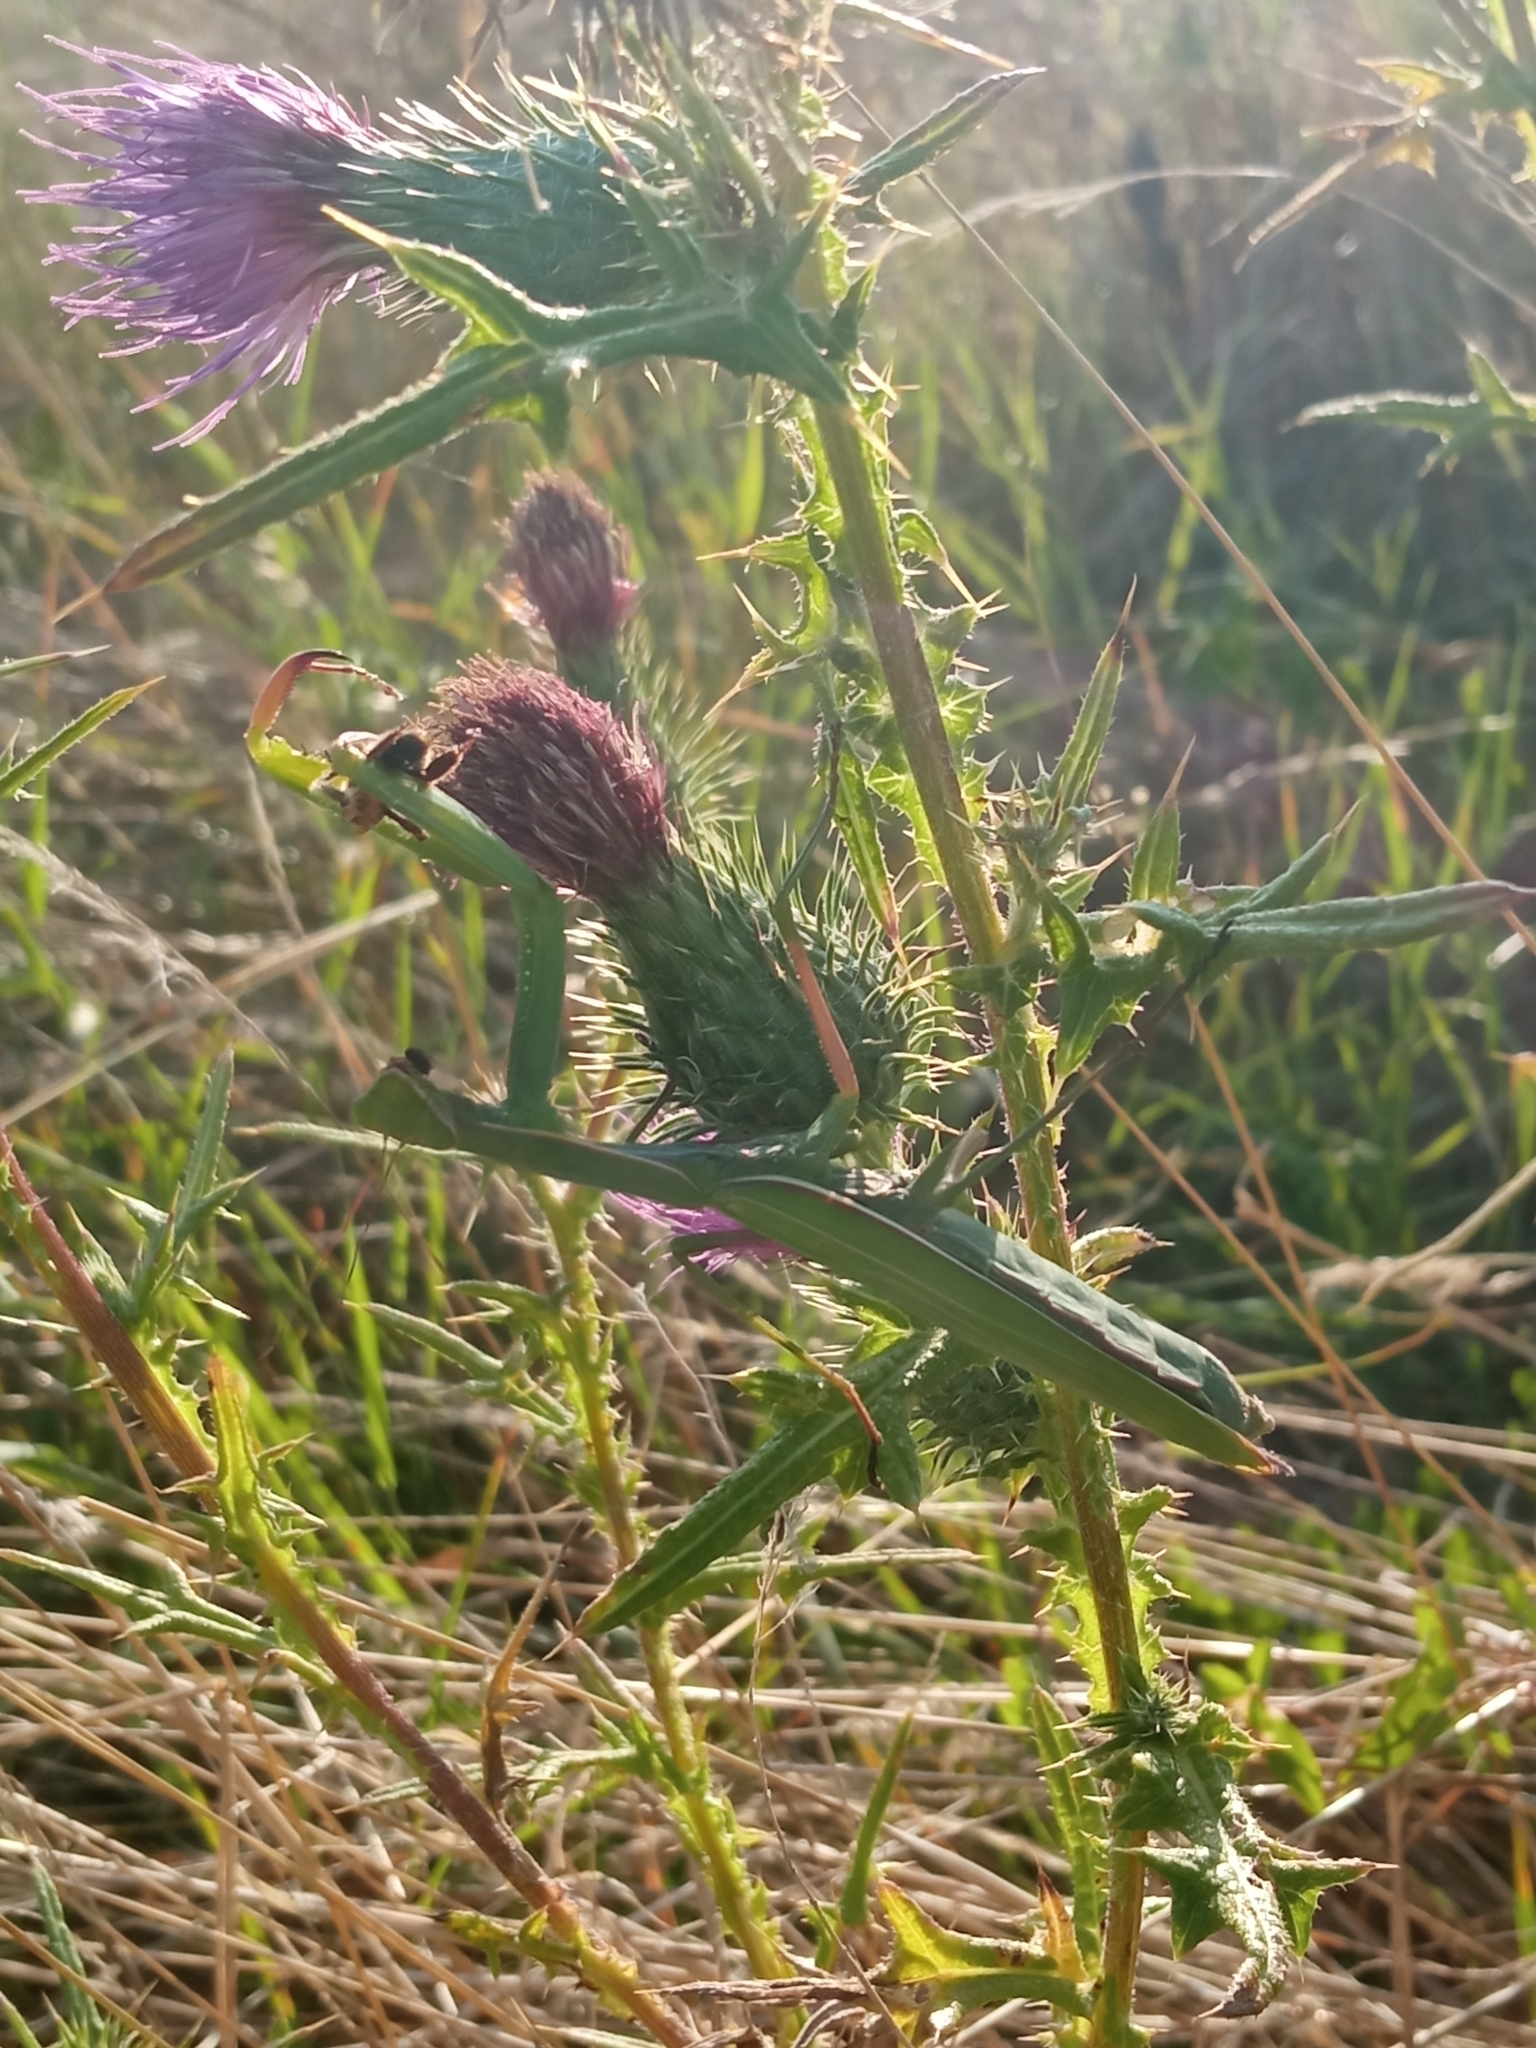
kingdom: Animalia
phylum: Arthropoda
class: Insecta
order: Mantodea
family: Mantidae
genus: Mantis
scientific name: Mantis religiosa
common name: Praying mantis
